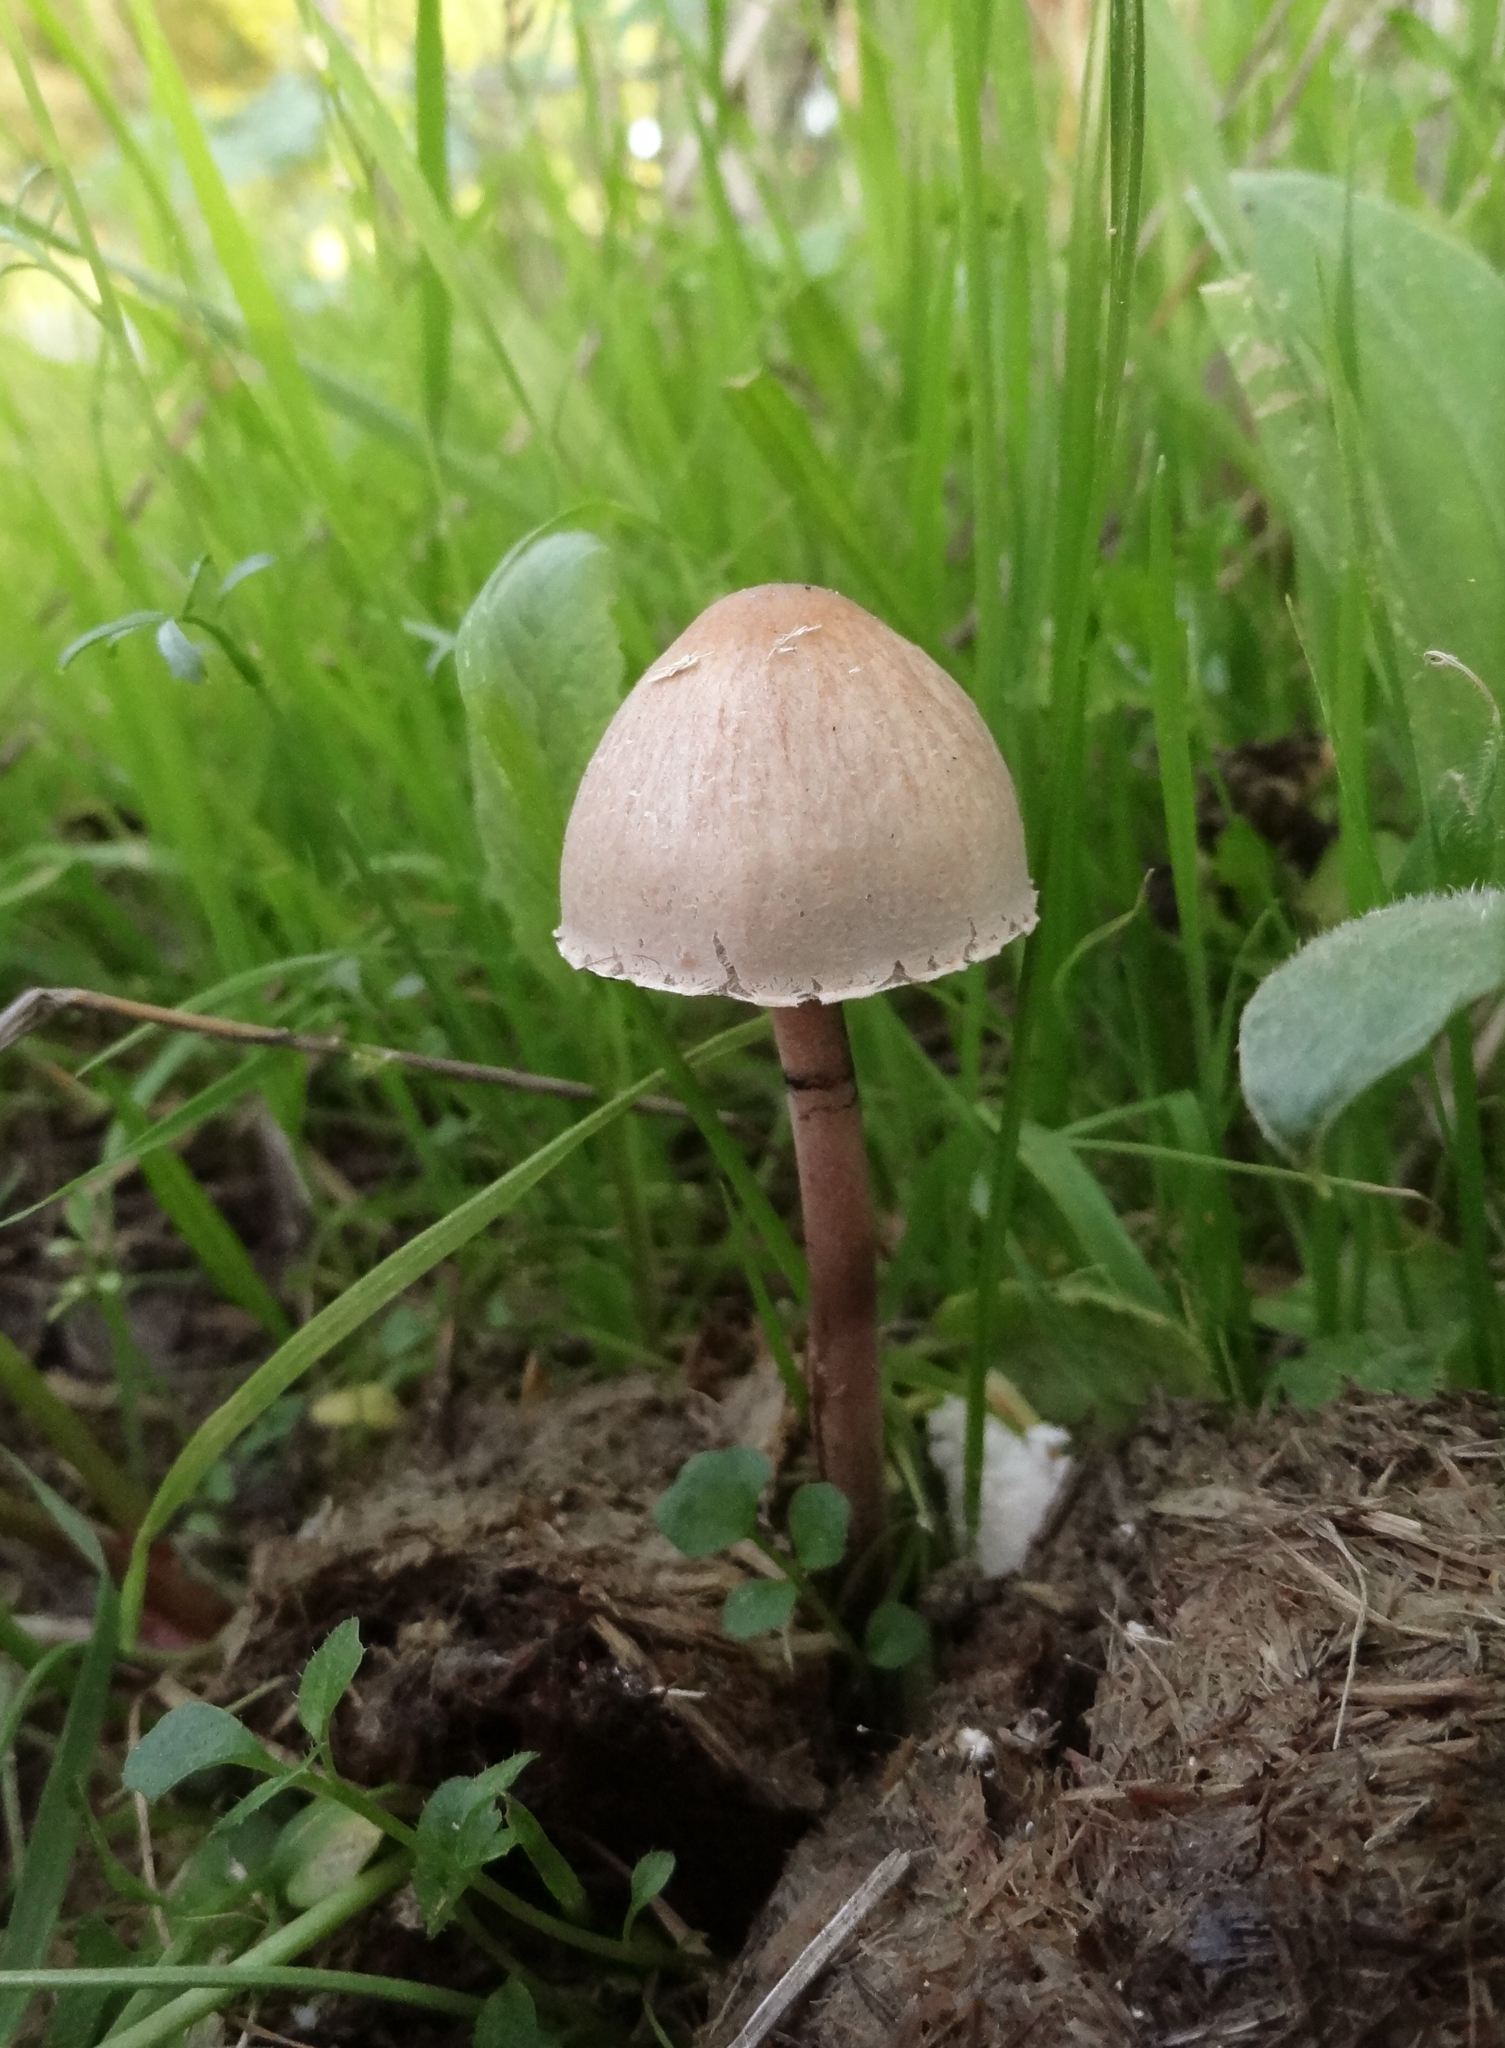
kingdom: Fungi
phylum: Basidiomycota
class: Agaricomycetes
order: Agaricales
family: Bolbitiaceae
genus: Panaeolus
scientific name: Panaeolus papilionaceus
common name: Petticoat mottlegill
